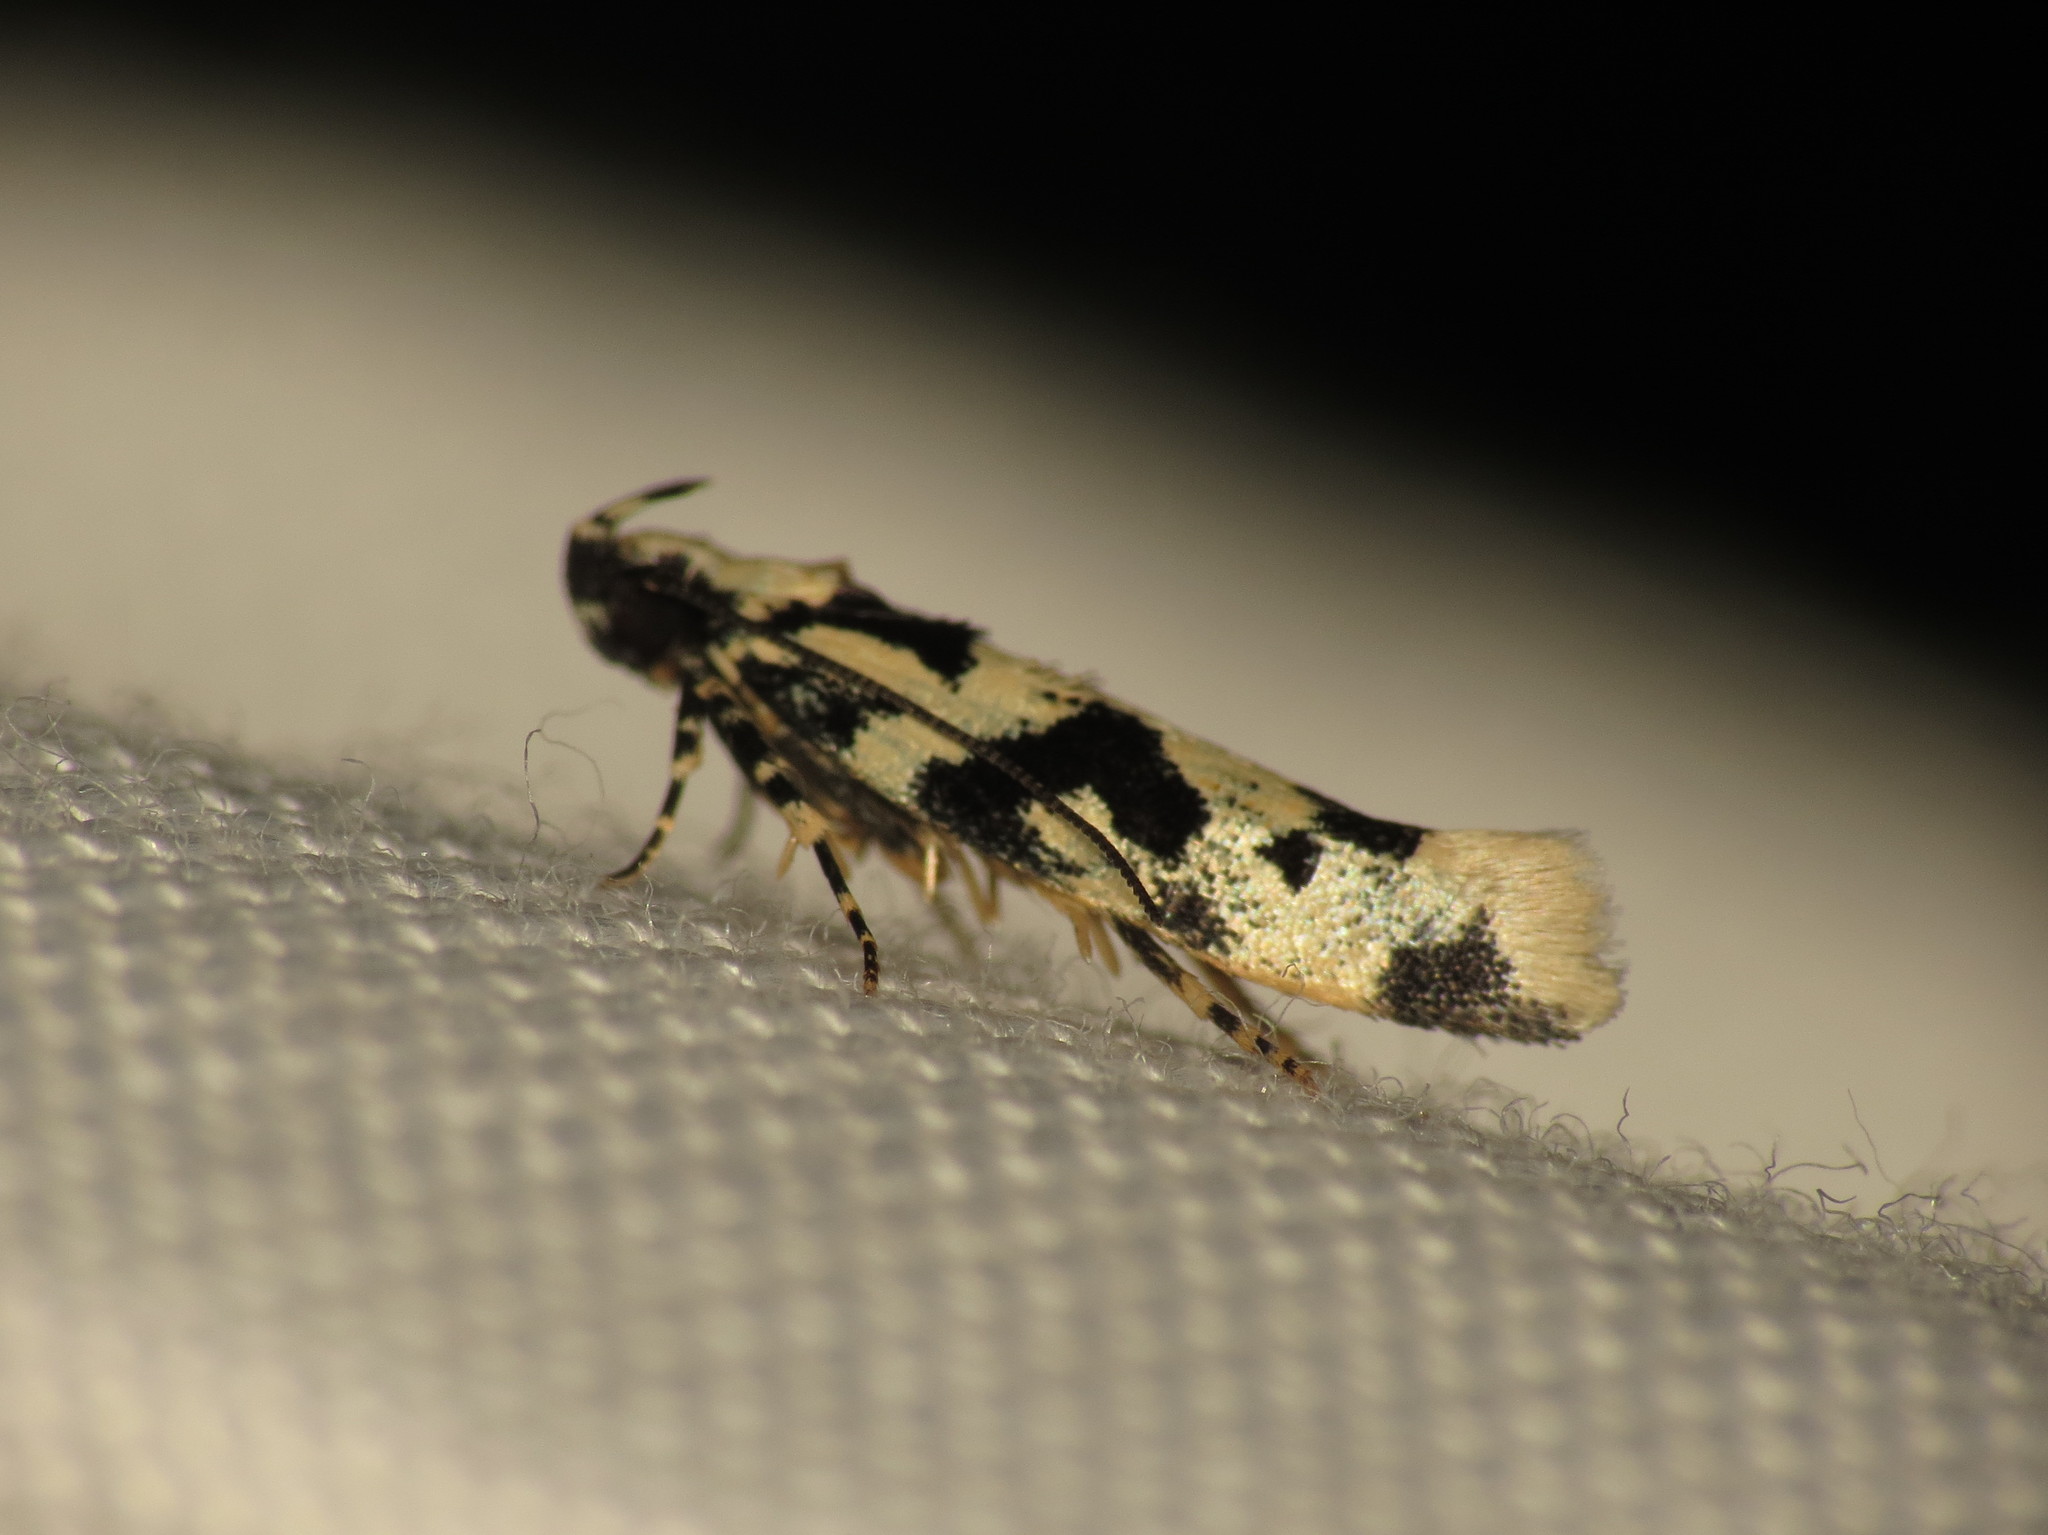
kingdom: Animalia
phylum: Arthropoda
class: Insecta
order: Lepidoptera
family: Cosmopterigidae
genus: Hyposmochoma
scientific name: Hyposmochoma alliterata
